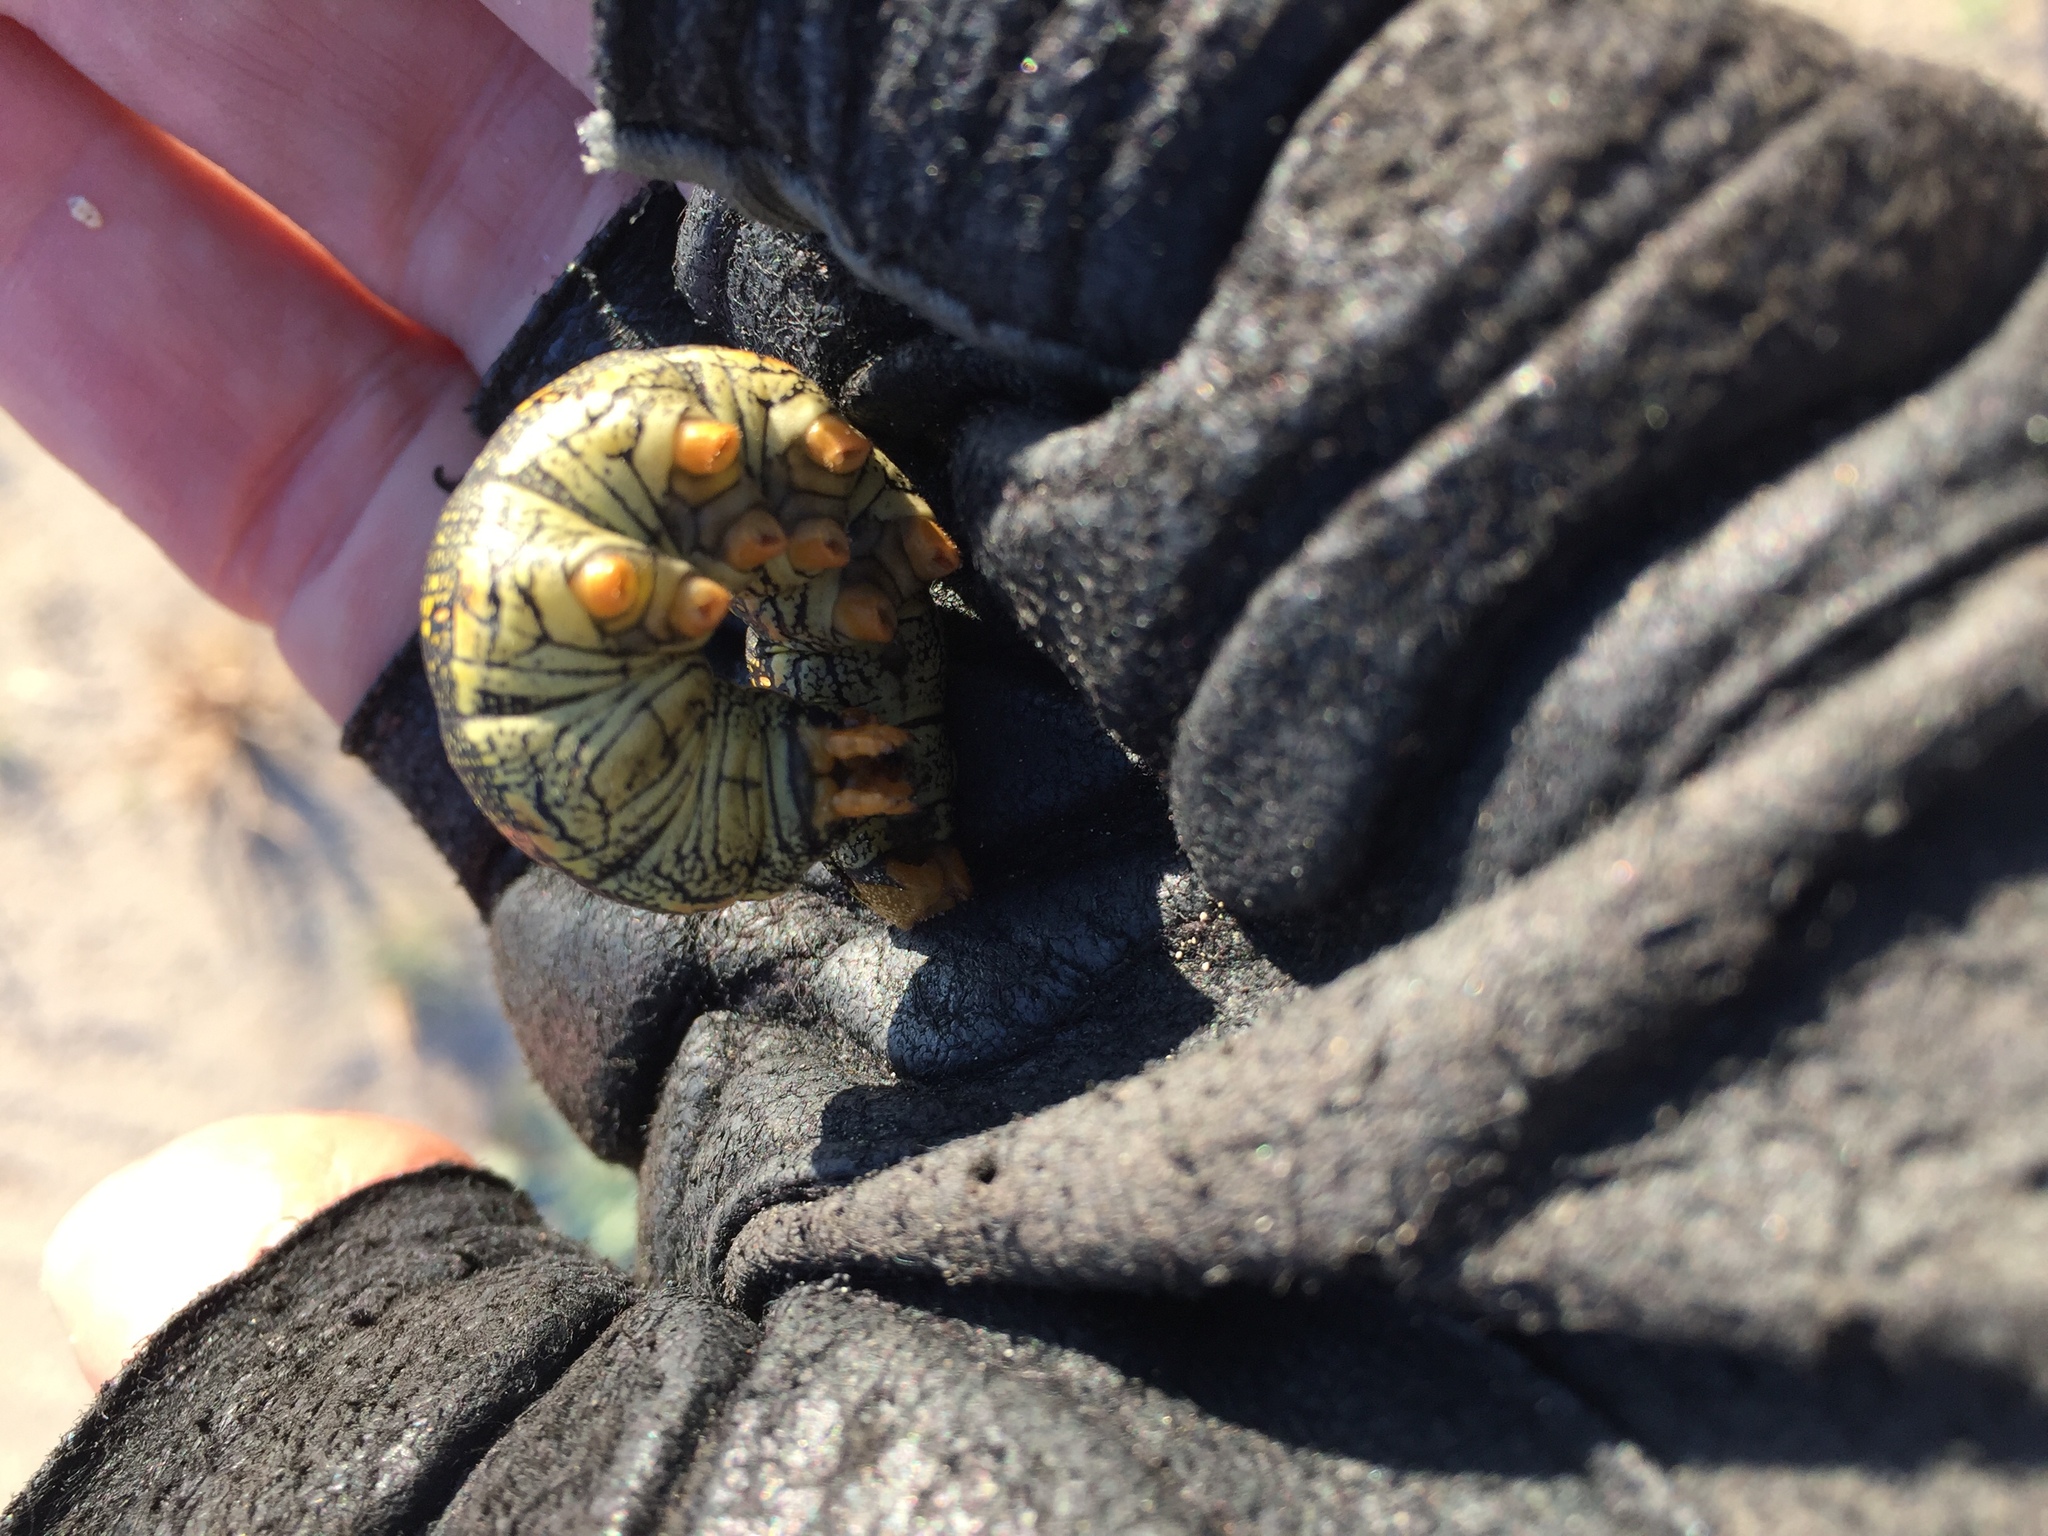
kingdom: Animalia
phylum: Arthropoda
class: Insecta
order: Lepidoptera
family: Sphingidae
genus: Hyles
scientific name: Hyles lineata
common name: White-lined sphinx
